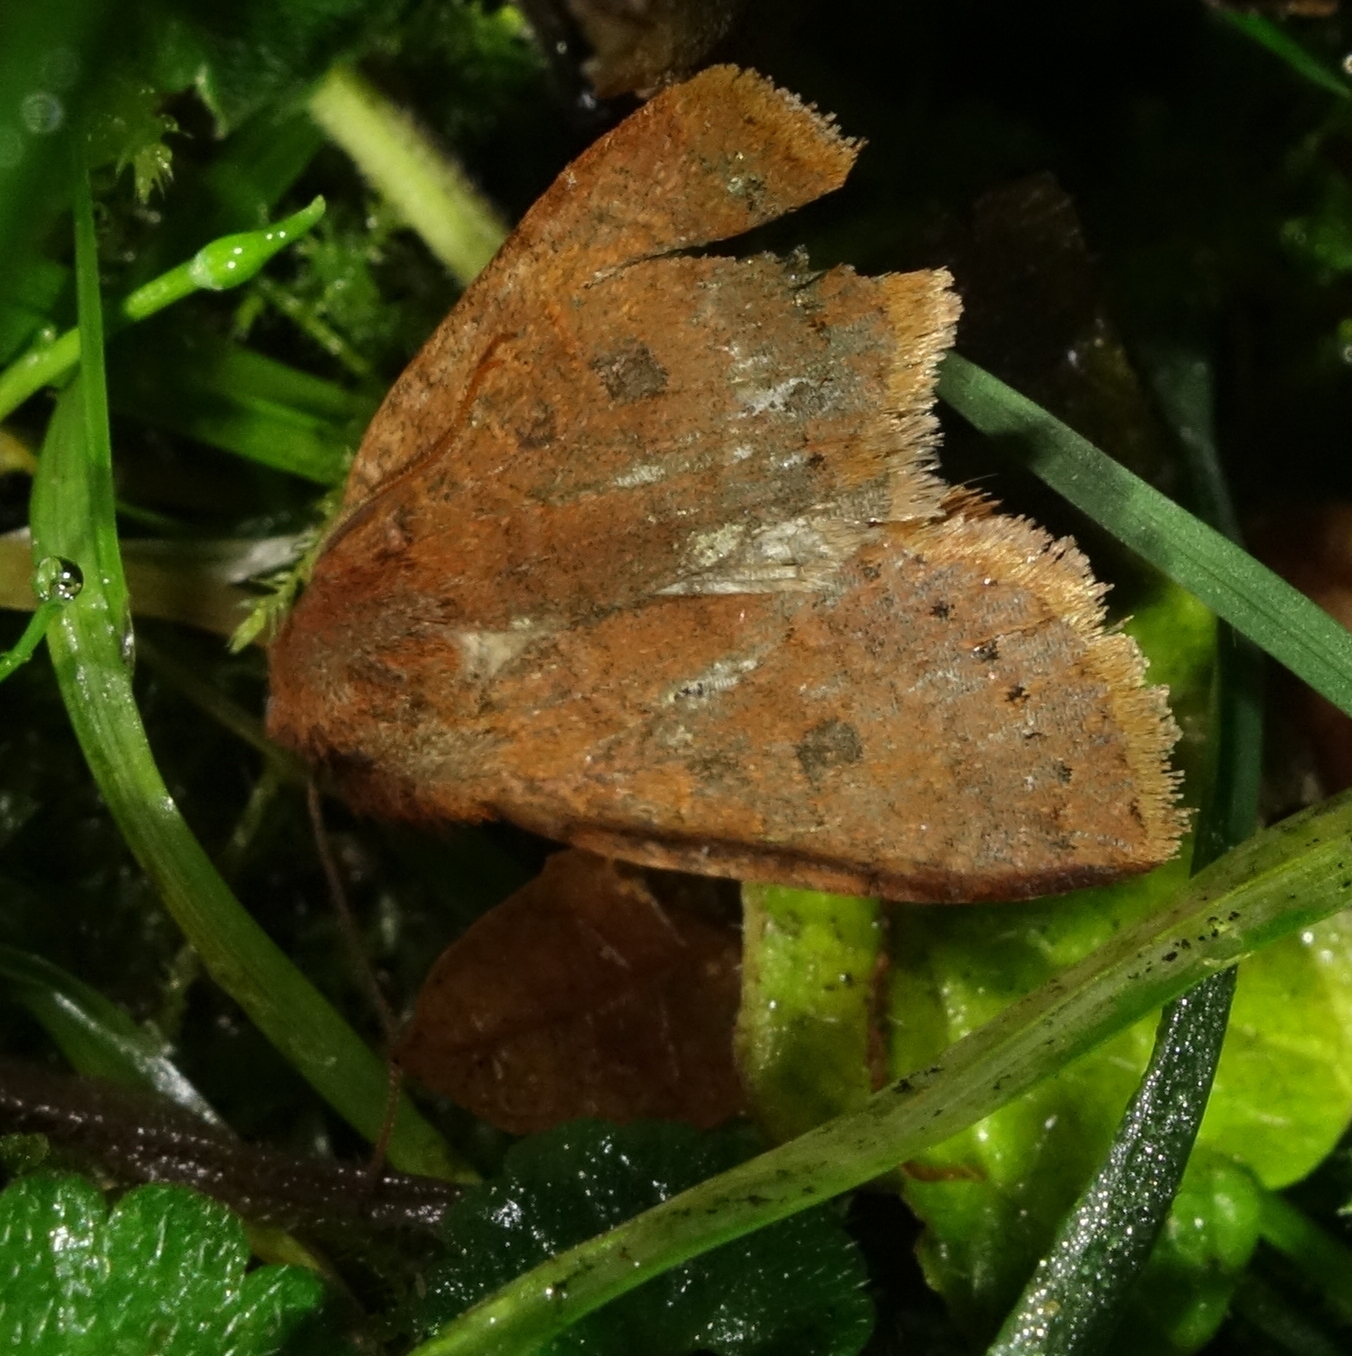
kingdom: Animalia
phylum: Arthropoda
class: Insecta
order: Lepidoptera
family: Noctuidae
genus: Conistra
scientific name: Conistra vaccinii
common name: Chestnut
